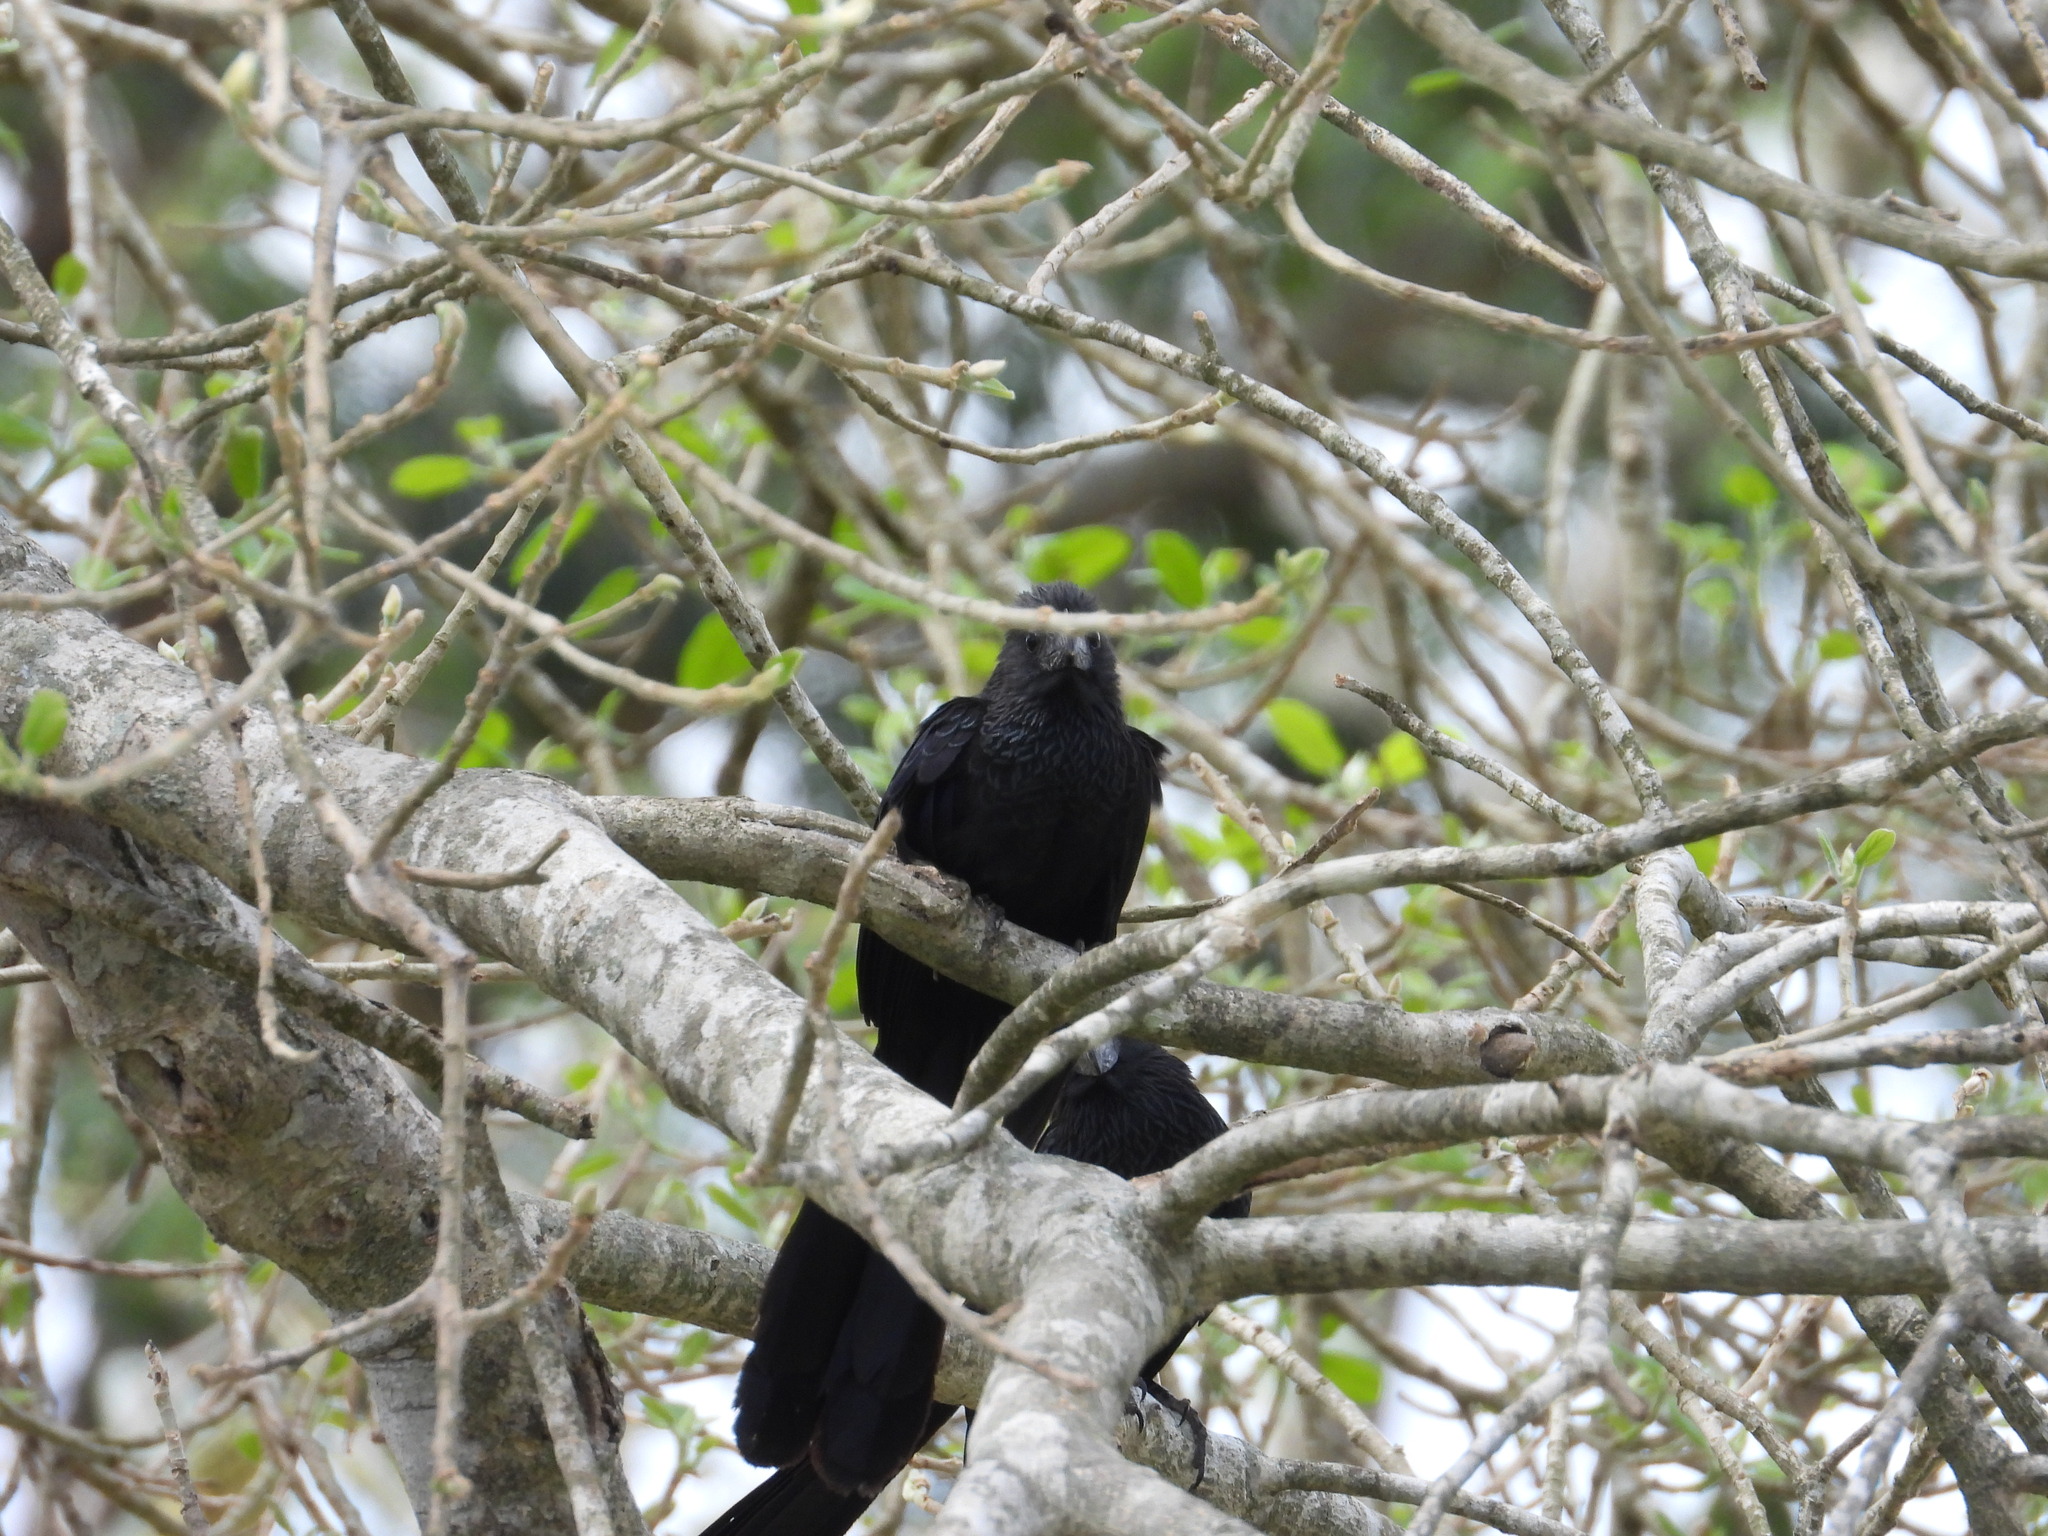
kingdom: Animalia
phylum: Chordata
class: Aves
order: Cuculiformes
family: Cuculidae
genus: Crotophaga
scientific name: Crotophaga sulcirostris
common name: Groove-billed ani
